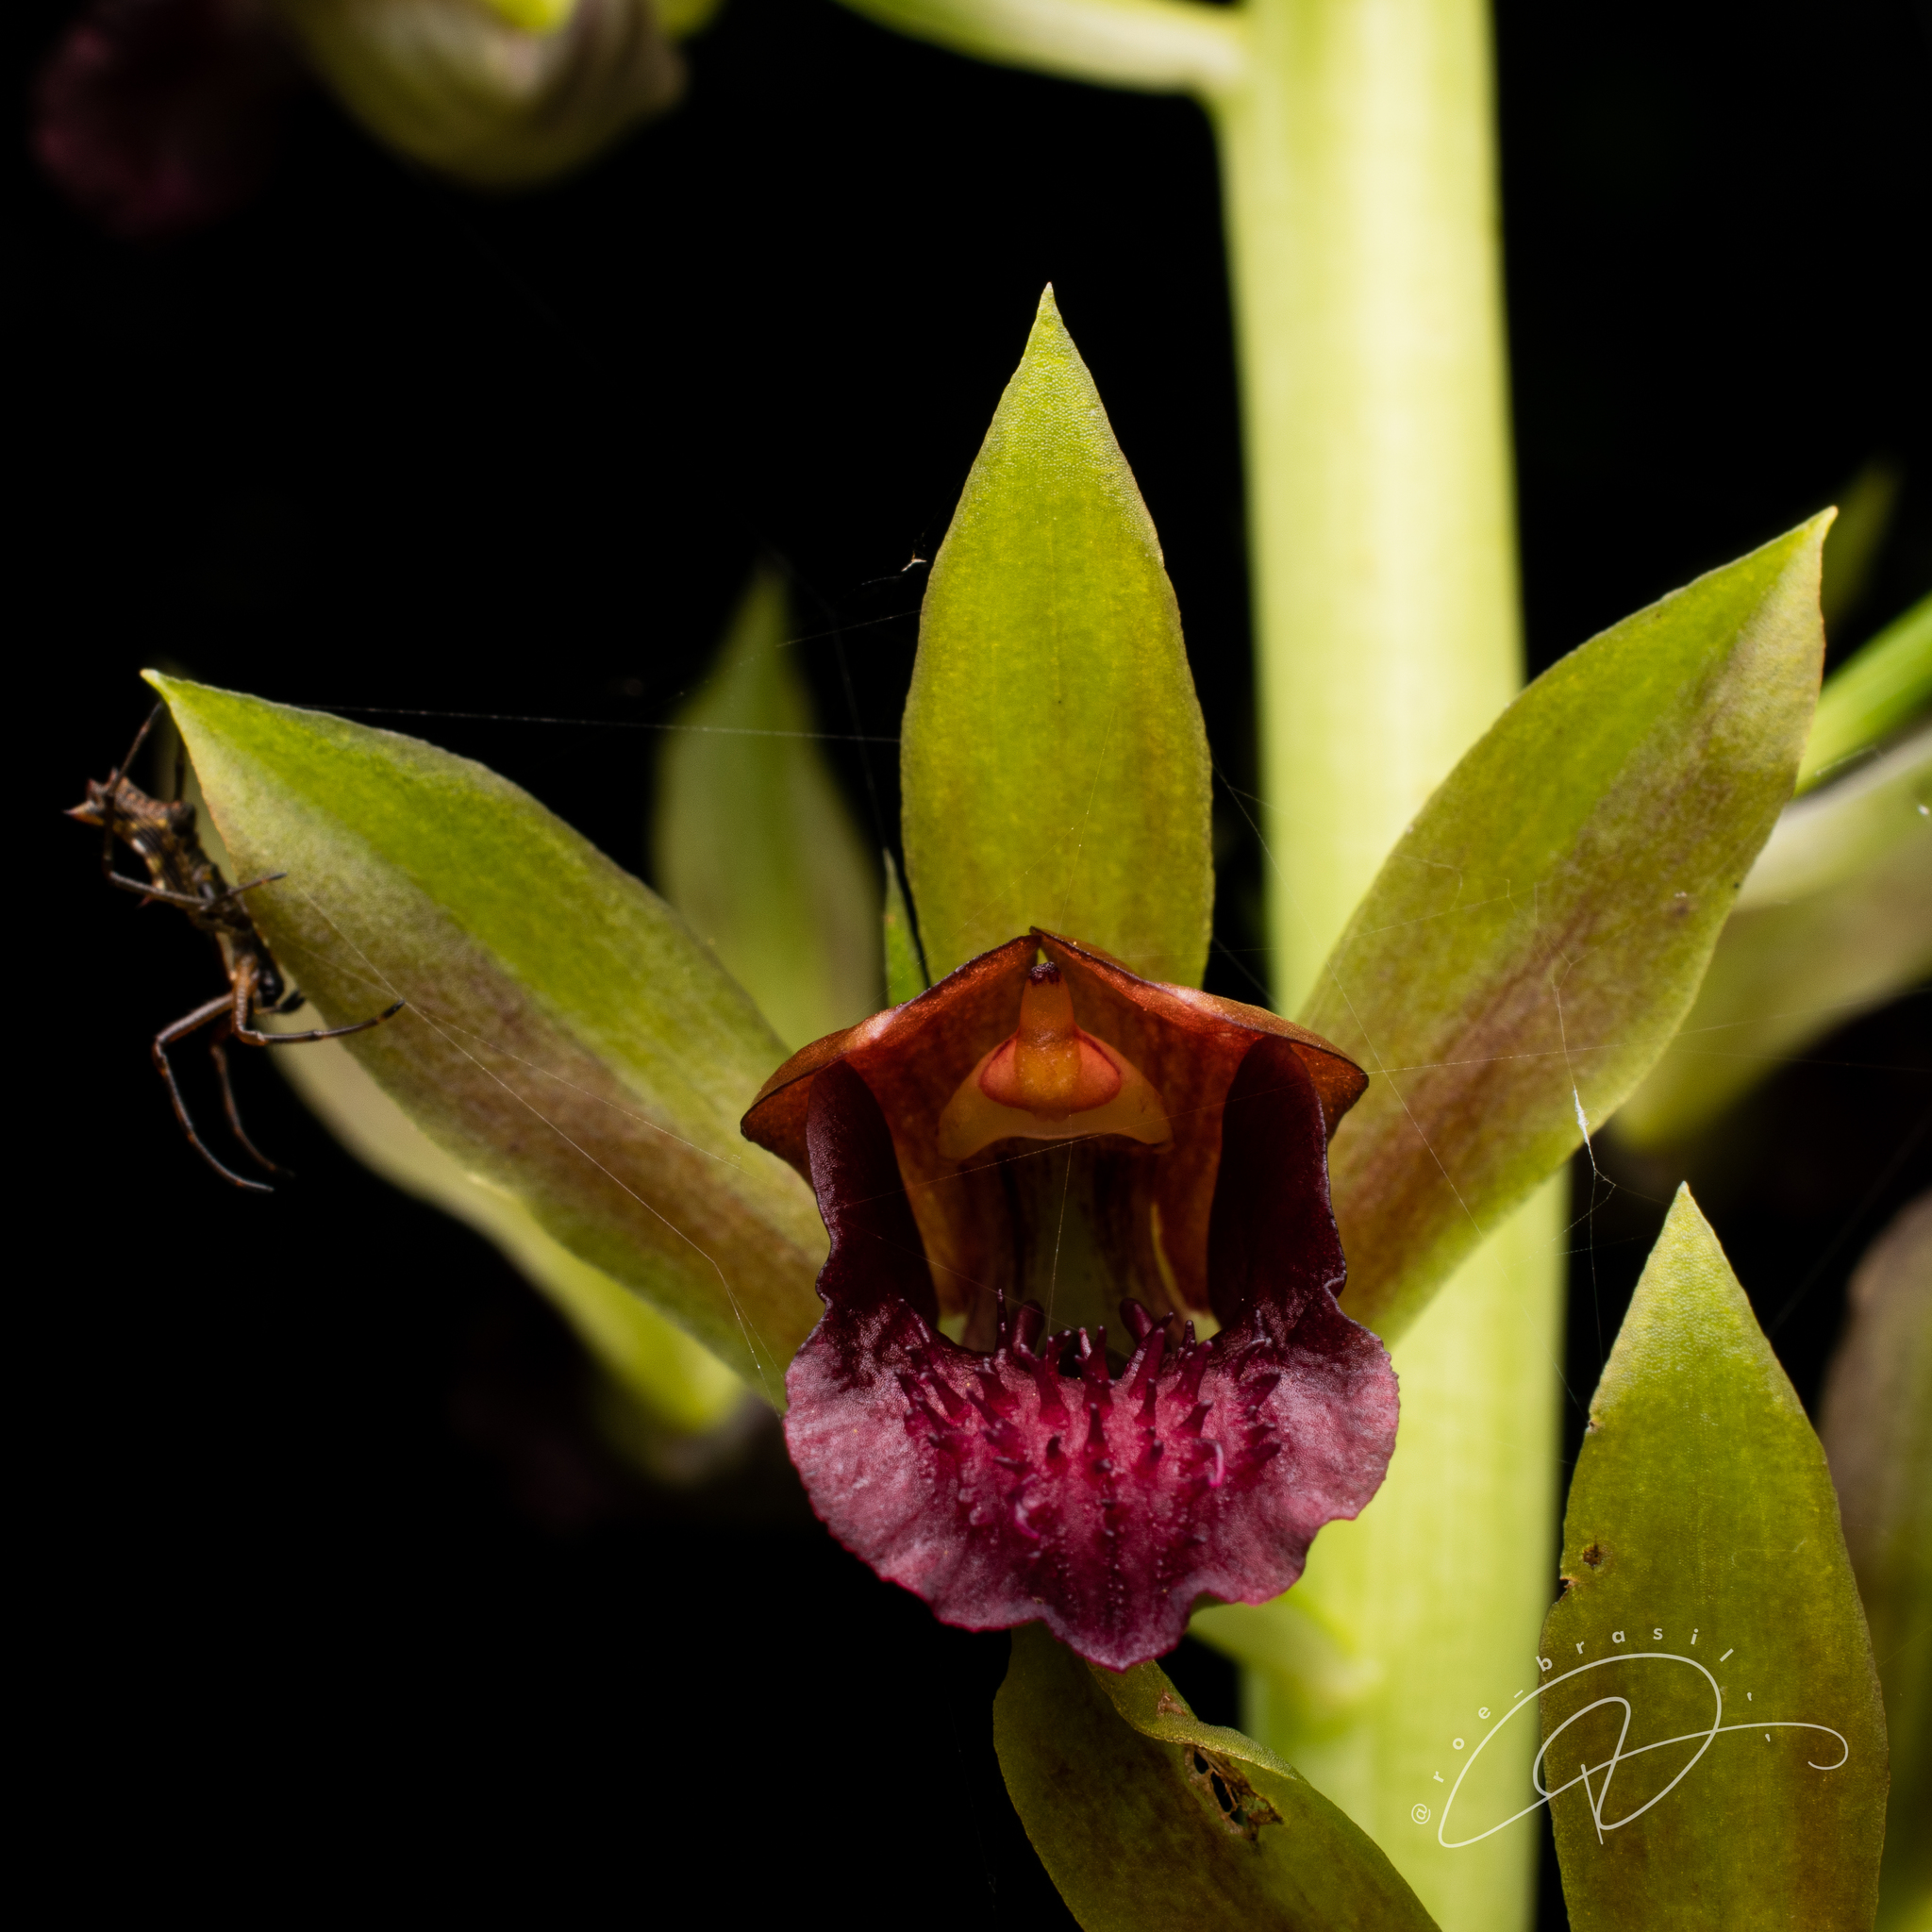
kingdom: Plantae
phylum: Tracheophyta
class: Liliopsida
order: Asparagales
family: Orchidaceae
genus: Eulophia
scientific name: Eulophia alta
